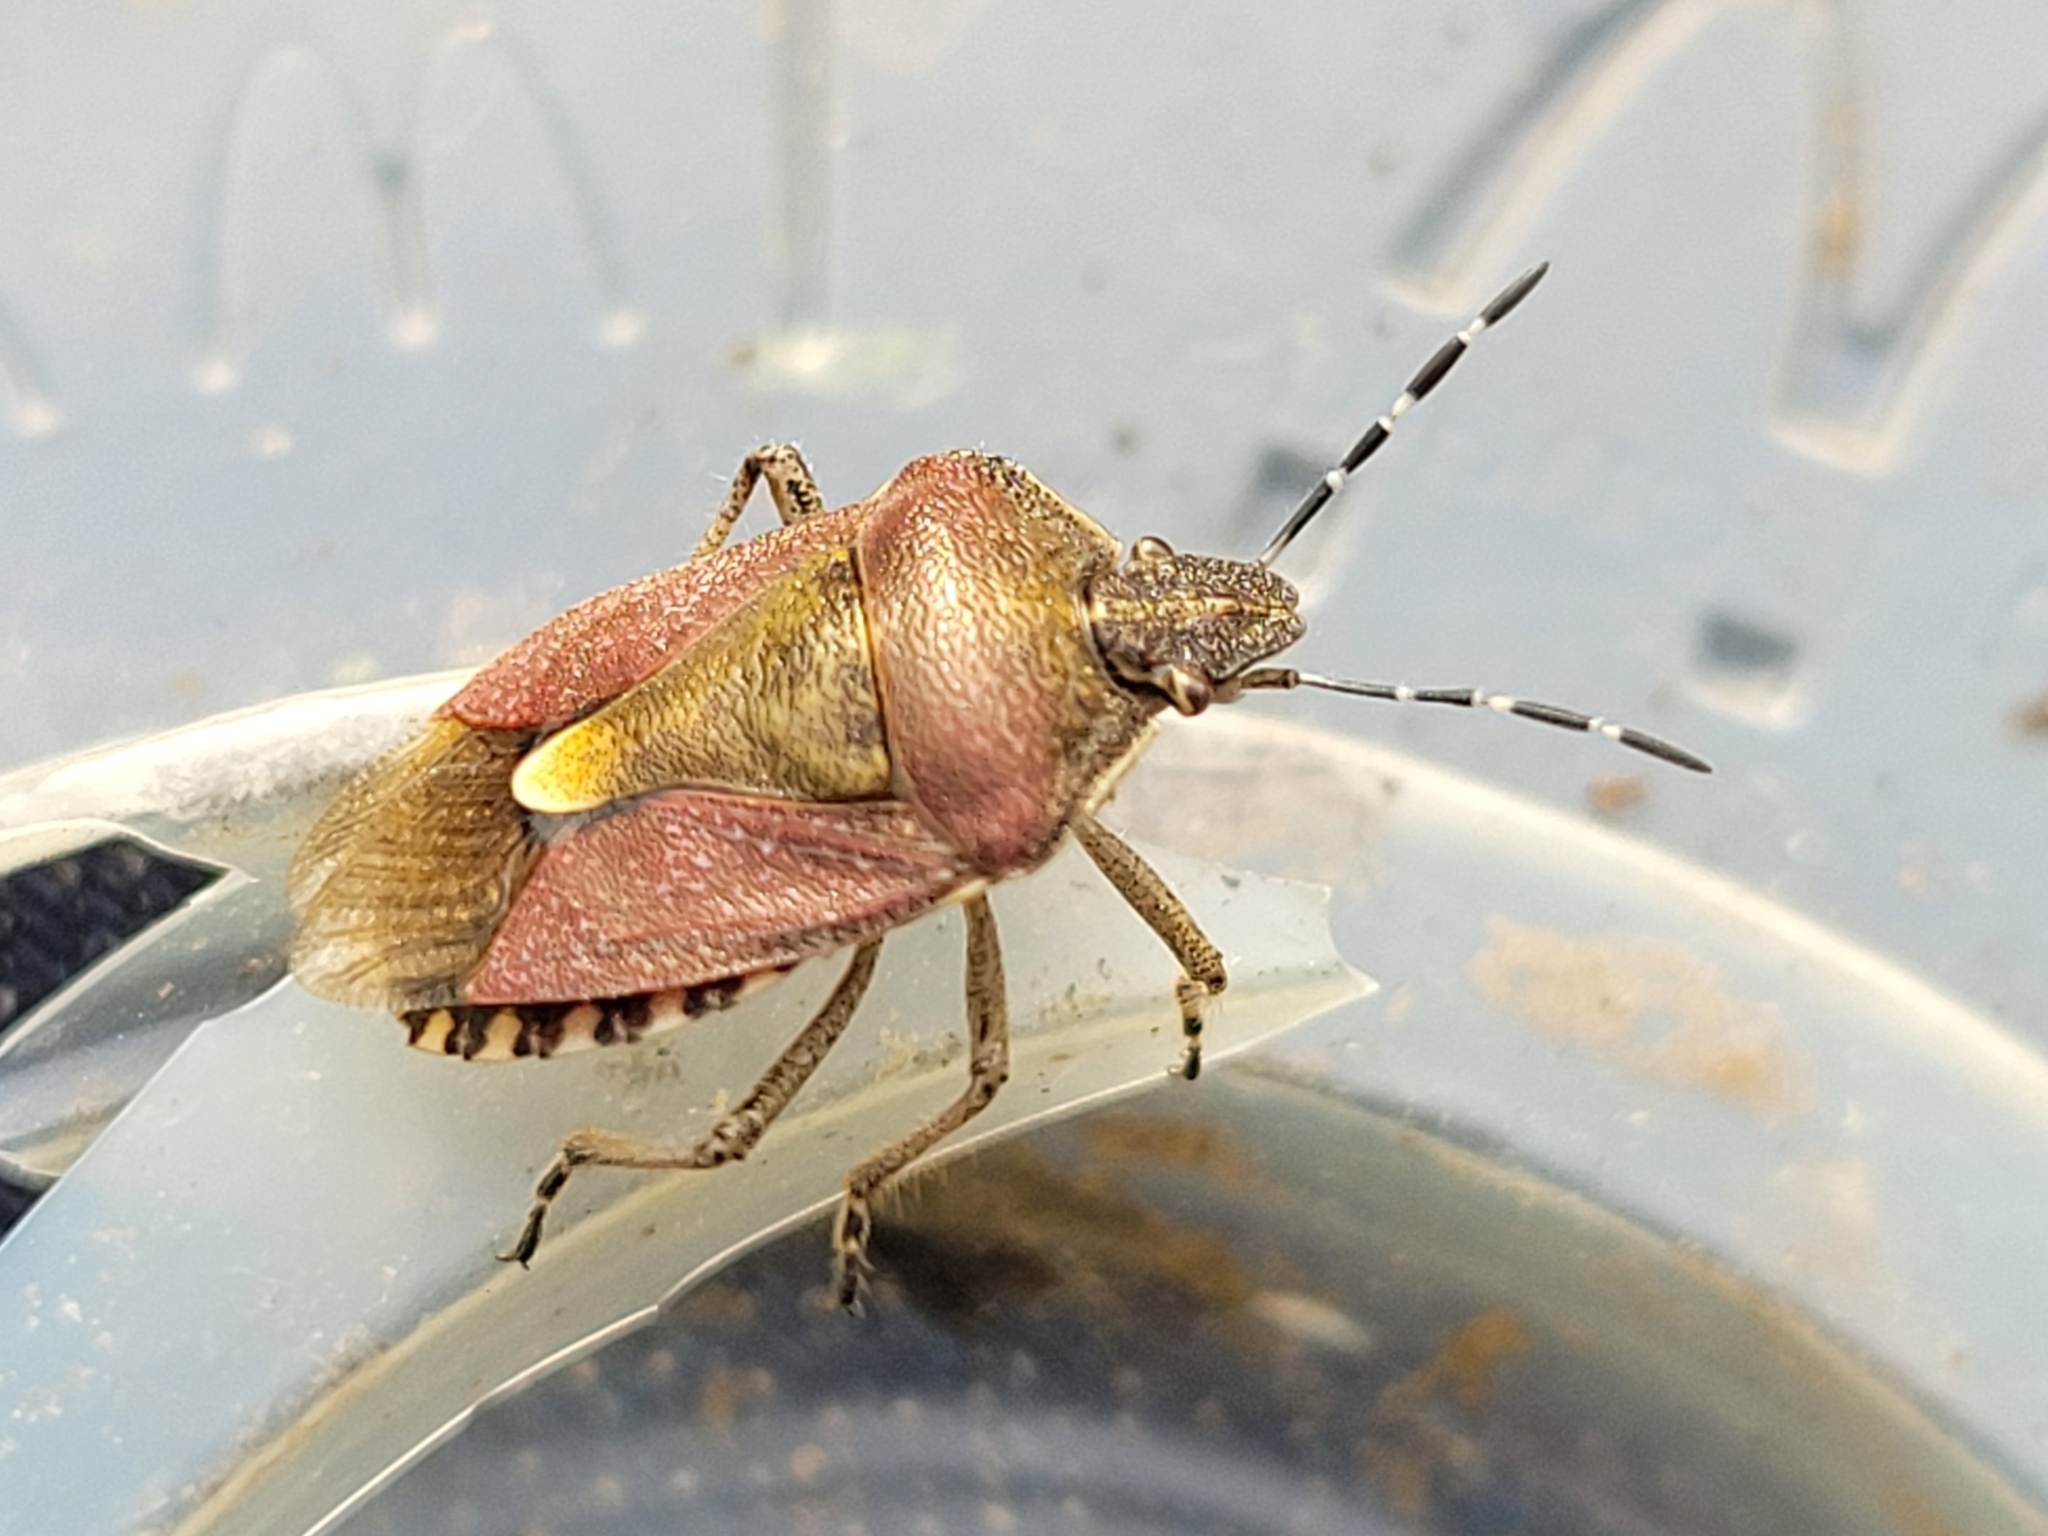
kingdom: Animalia
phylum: Arthropoda
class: Insecta
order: Hemiptera
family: Pentatomidae
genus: Dolycoris
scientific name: Dolycoris baccarum
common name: Sloe bug
